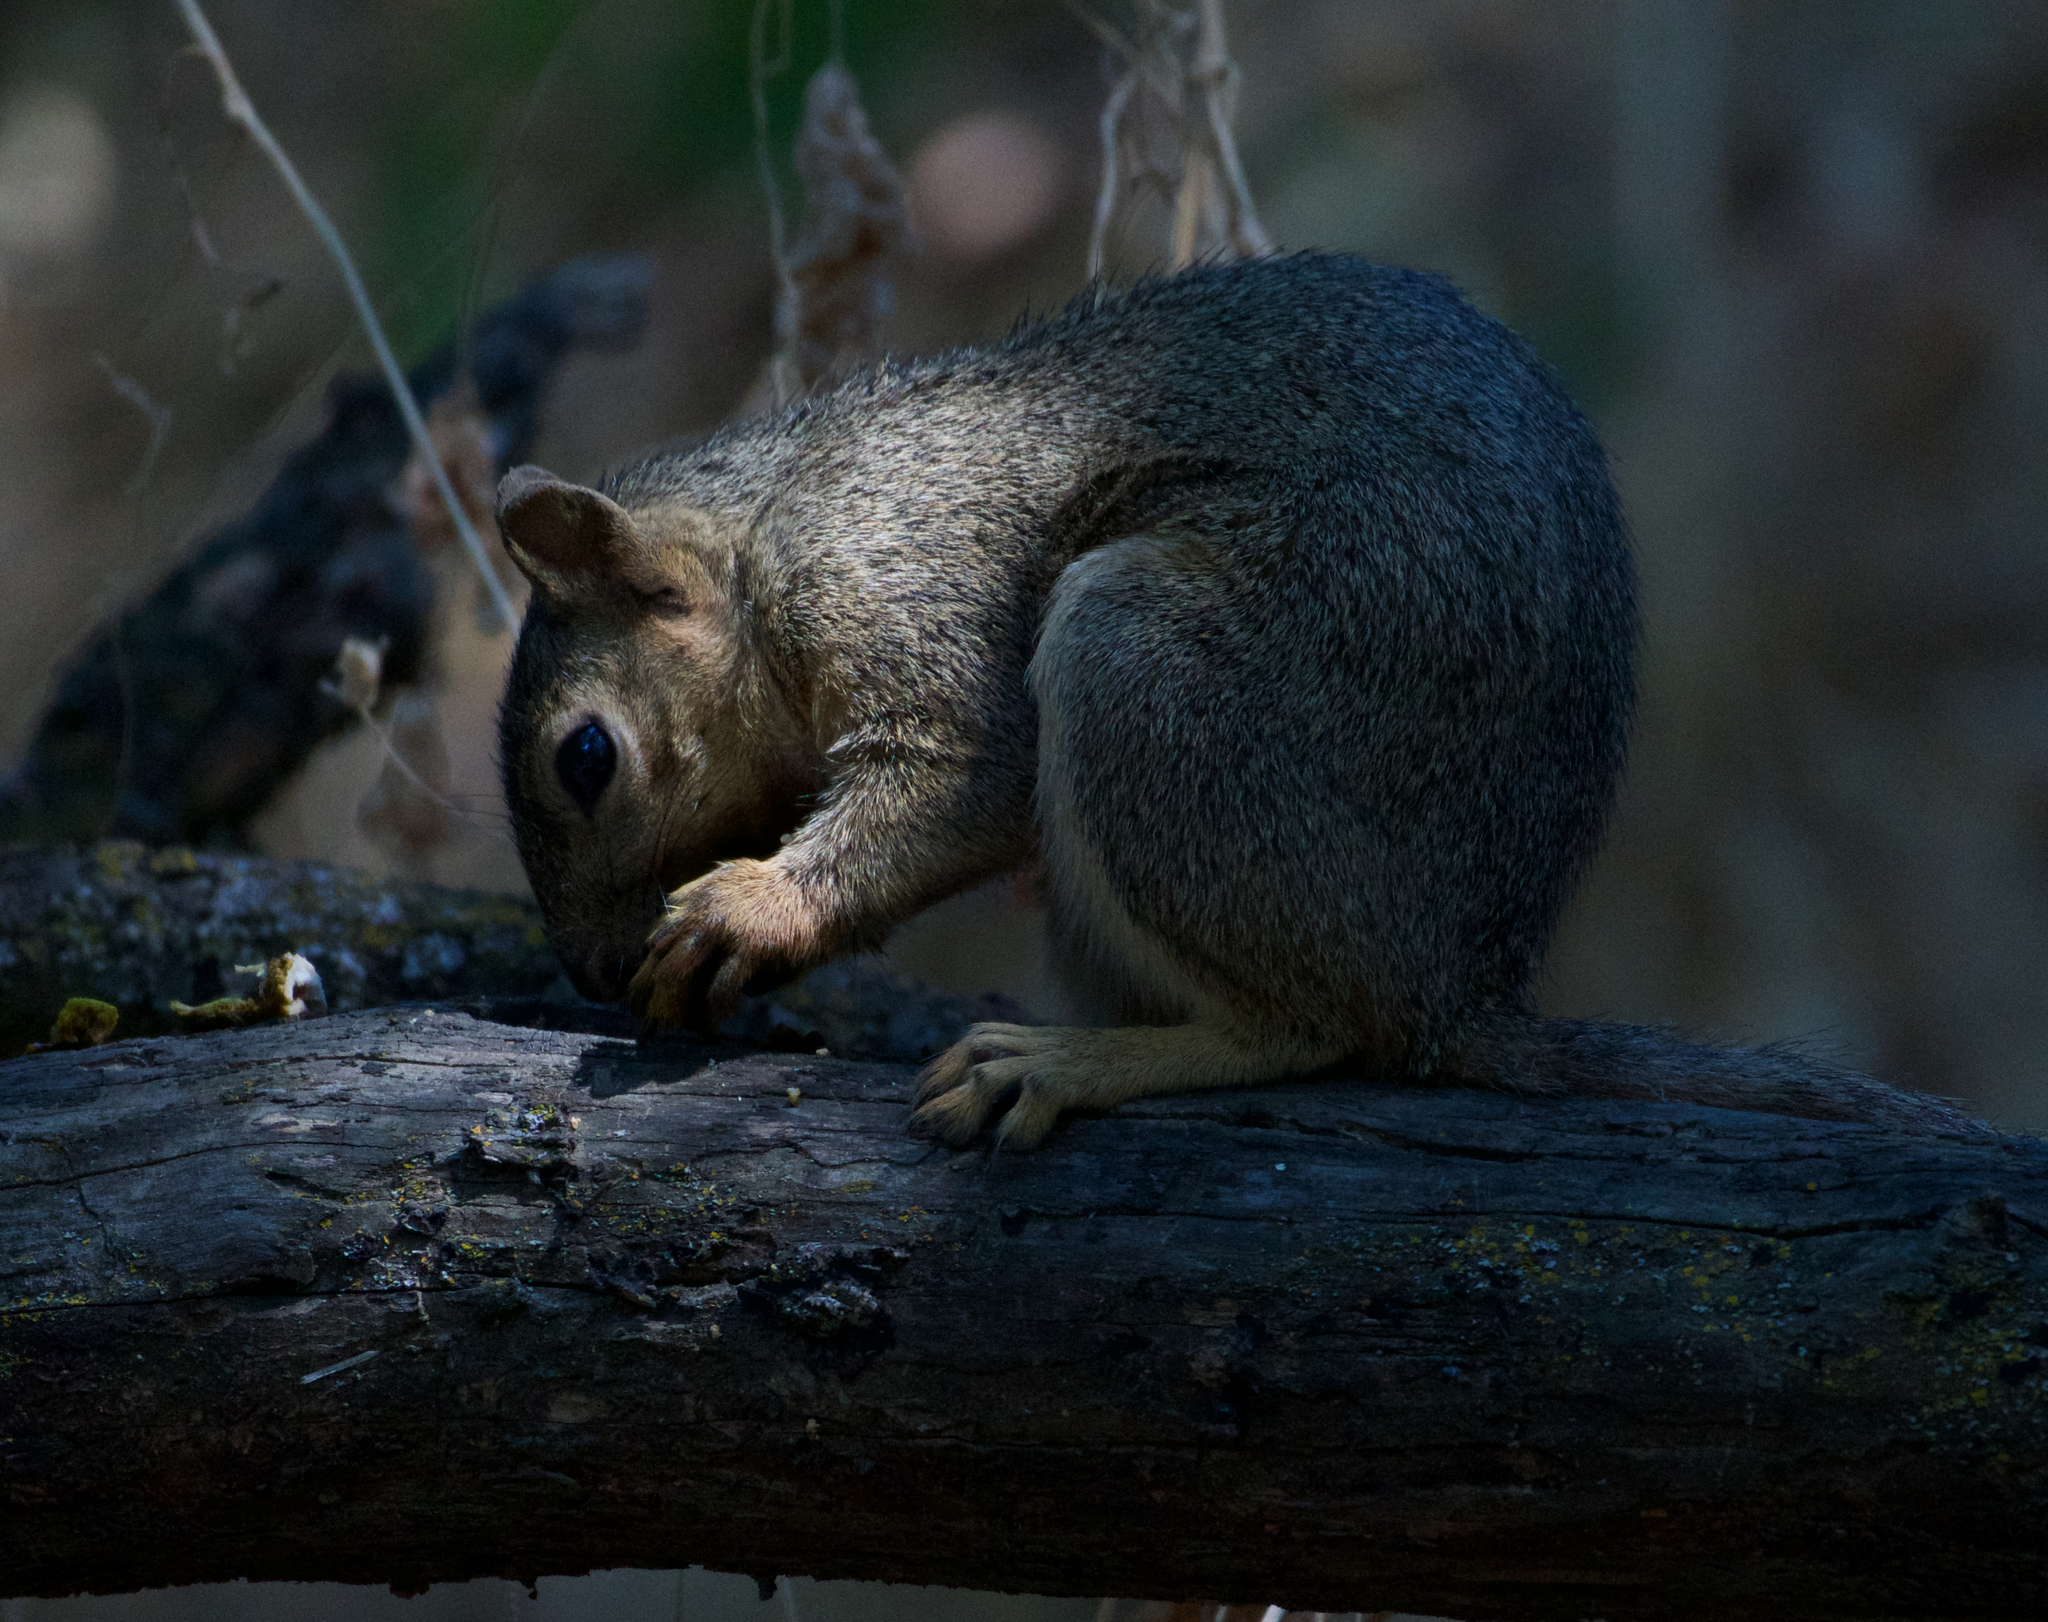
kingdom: Animalia
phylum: Chordata
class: Mammalia
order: Rodentia
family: Sciuridae
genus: Sciurus
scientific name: Sciurus niger
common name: Fox squirrel
